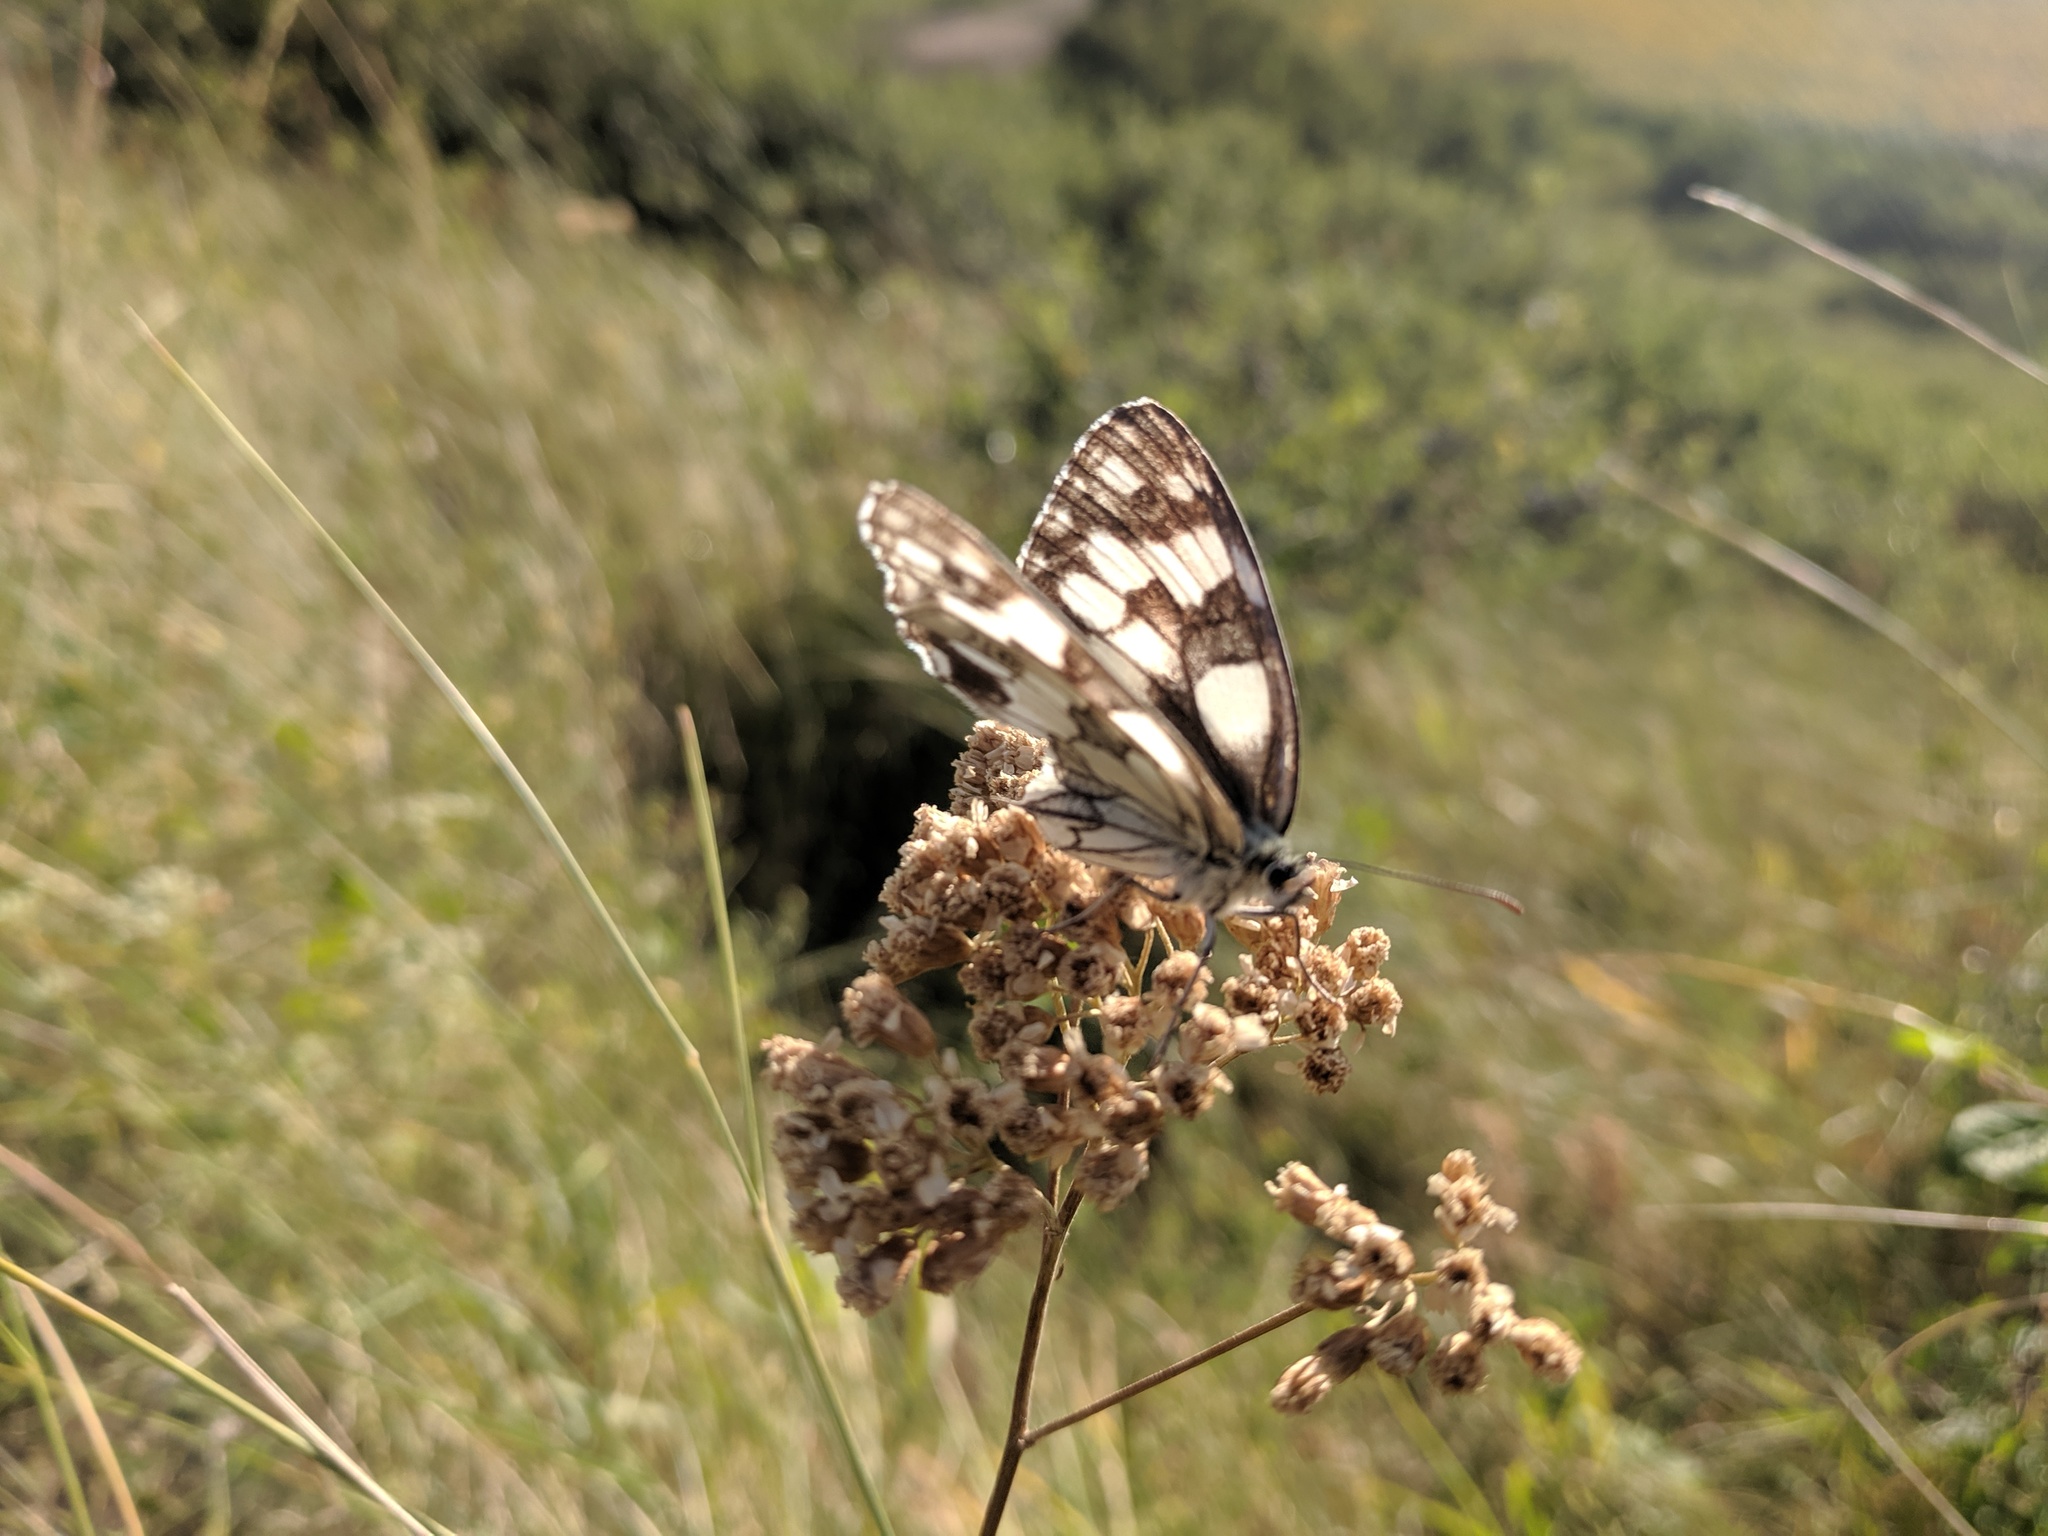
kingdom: Animalia
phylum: Arthropoda
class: Insecta
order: Lepidoptera
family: Nymphalidae
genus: Melanargia
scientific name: Melanargia galathea
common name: Marbled white
